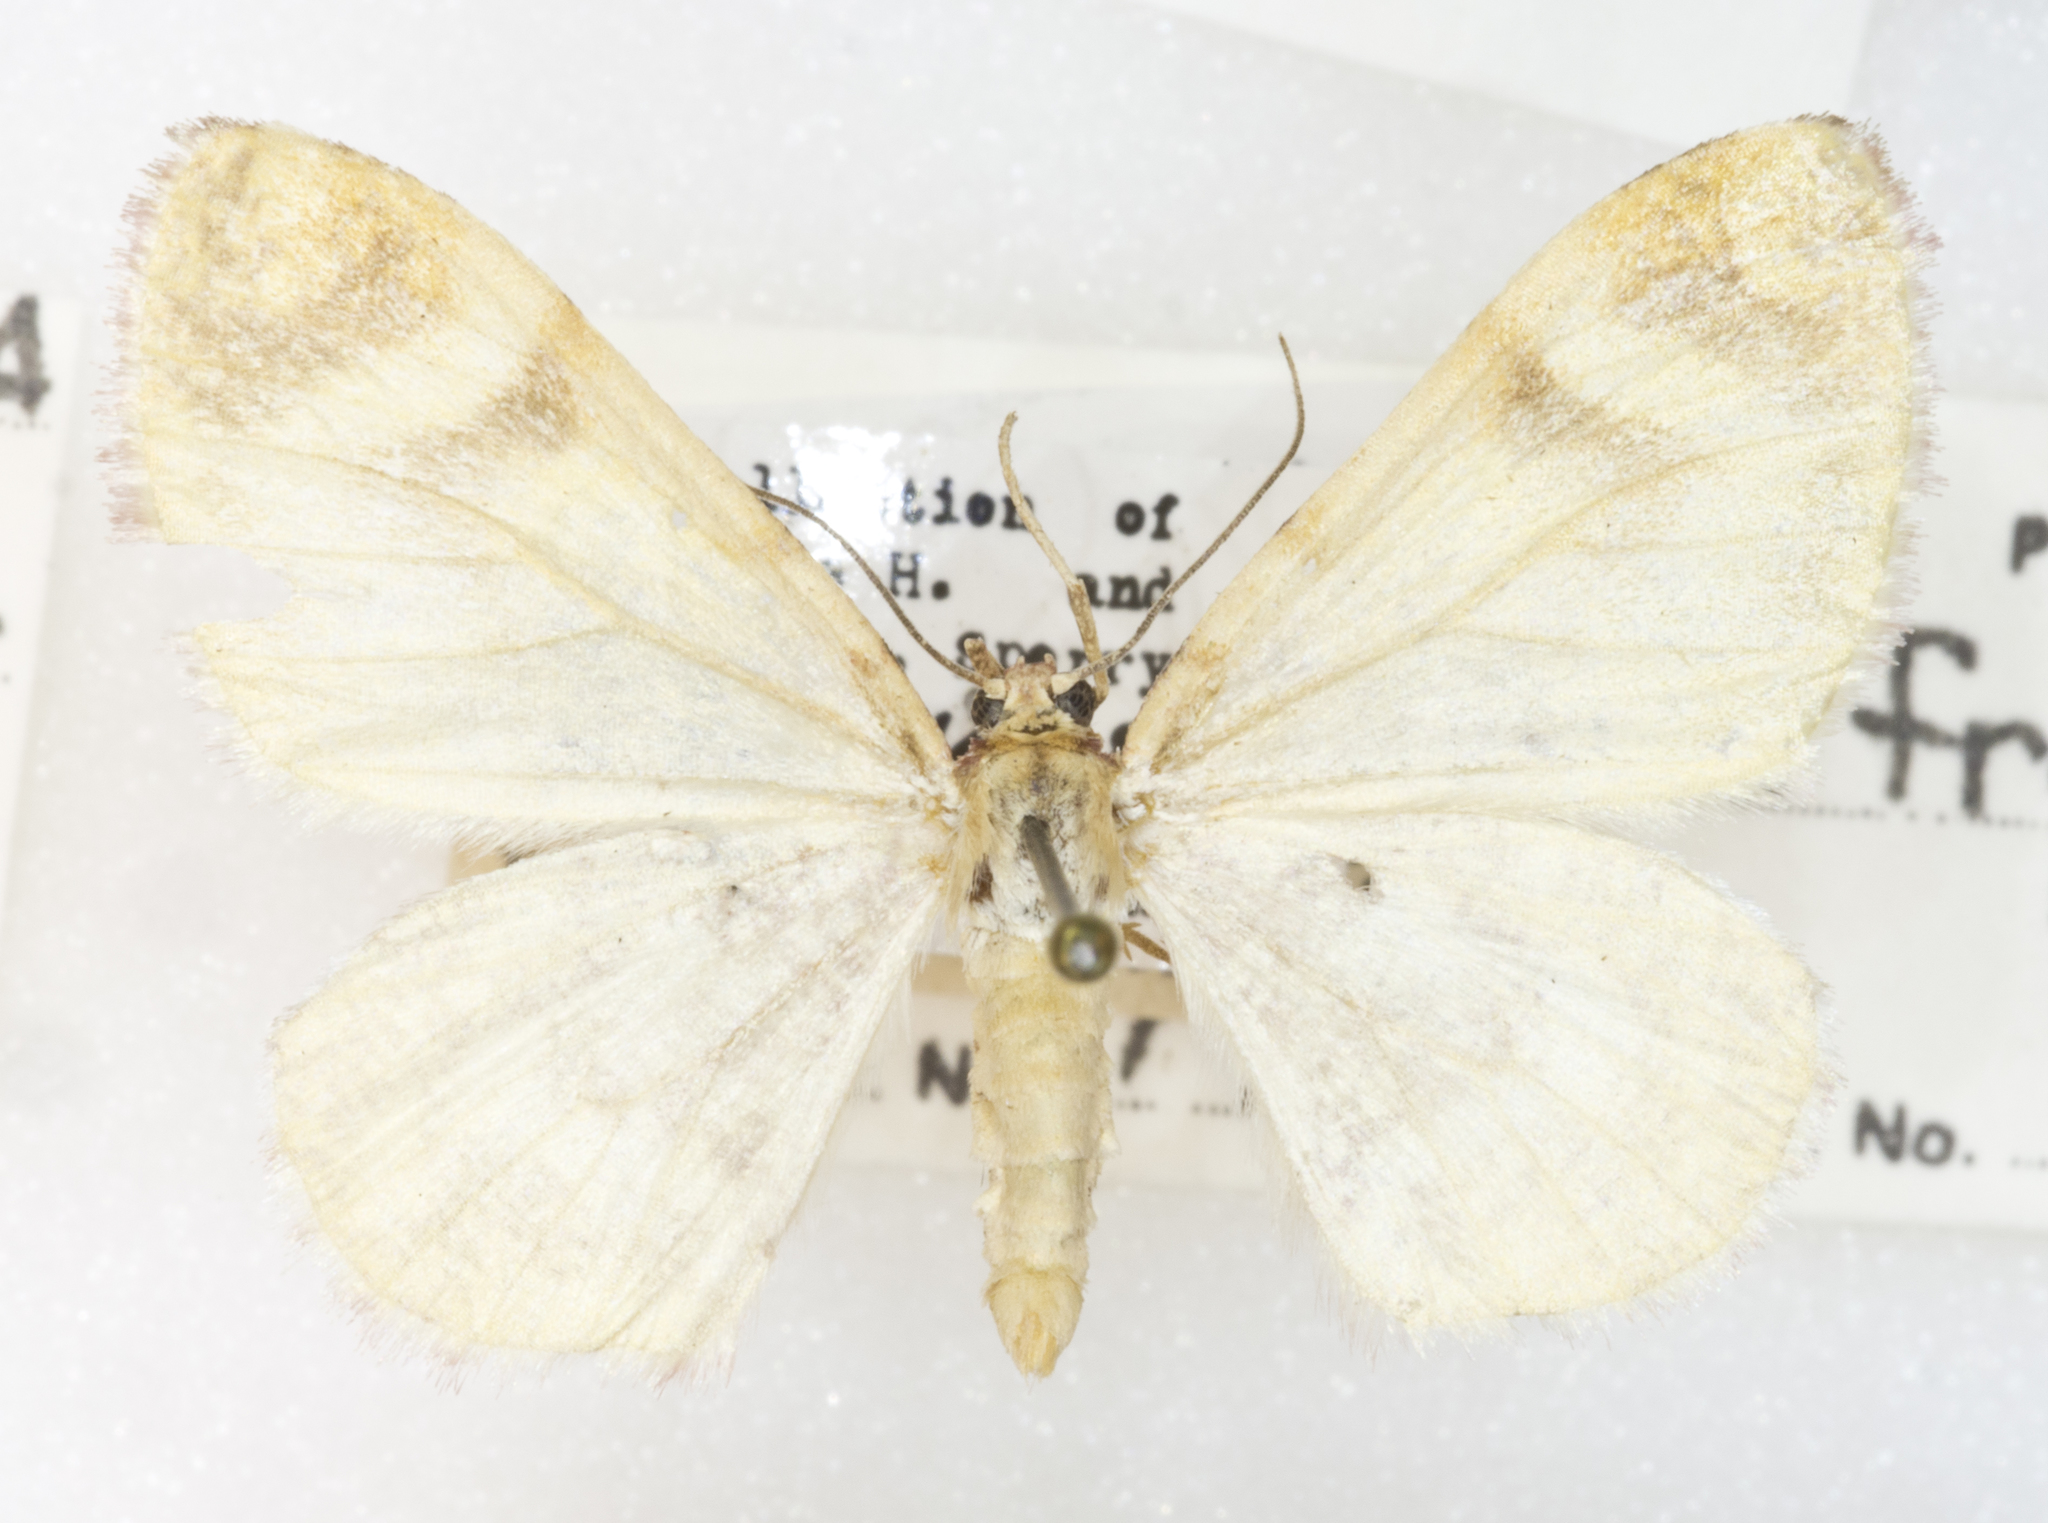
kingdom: Animalia
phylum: Arthropoda
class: Insecta
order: Lepidoptera
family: Geometridae
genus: Stamnodes
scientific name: Stamnodes franckata
